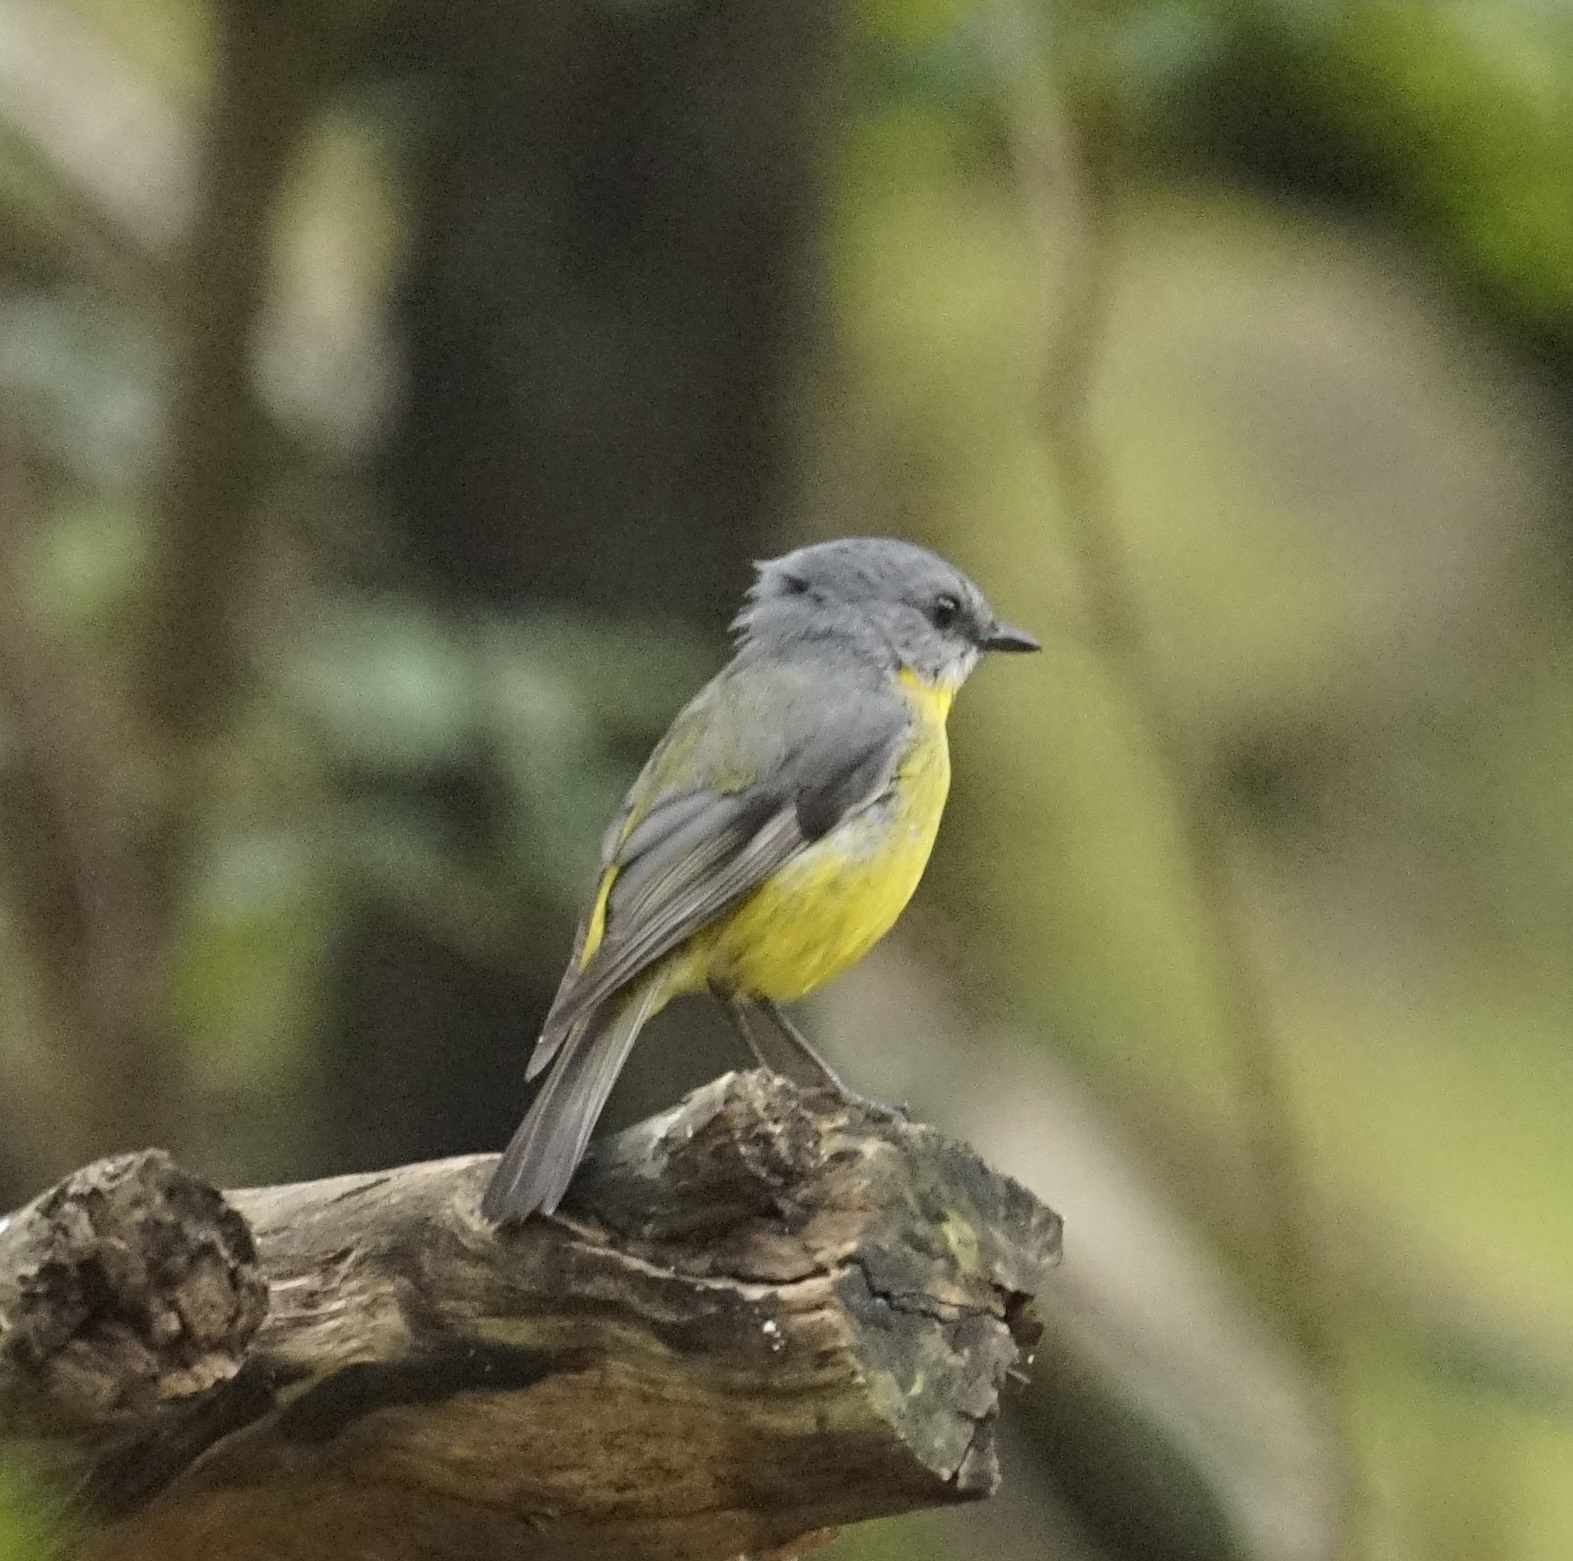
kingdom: Animalia
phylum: Chordata
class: Aves
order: Passeriformes
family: Petroicidae
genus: Eopsaltria
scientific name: Eopsaltria australis
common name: Eastern yellow robin
